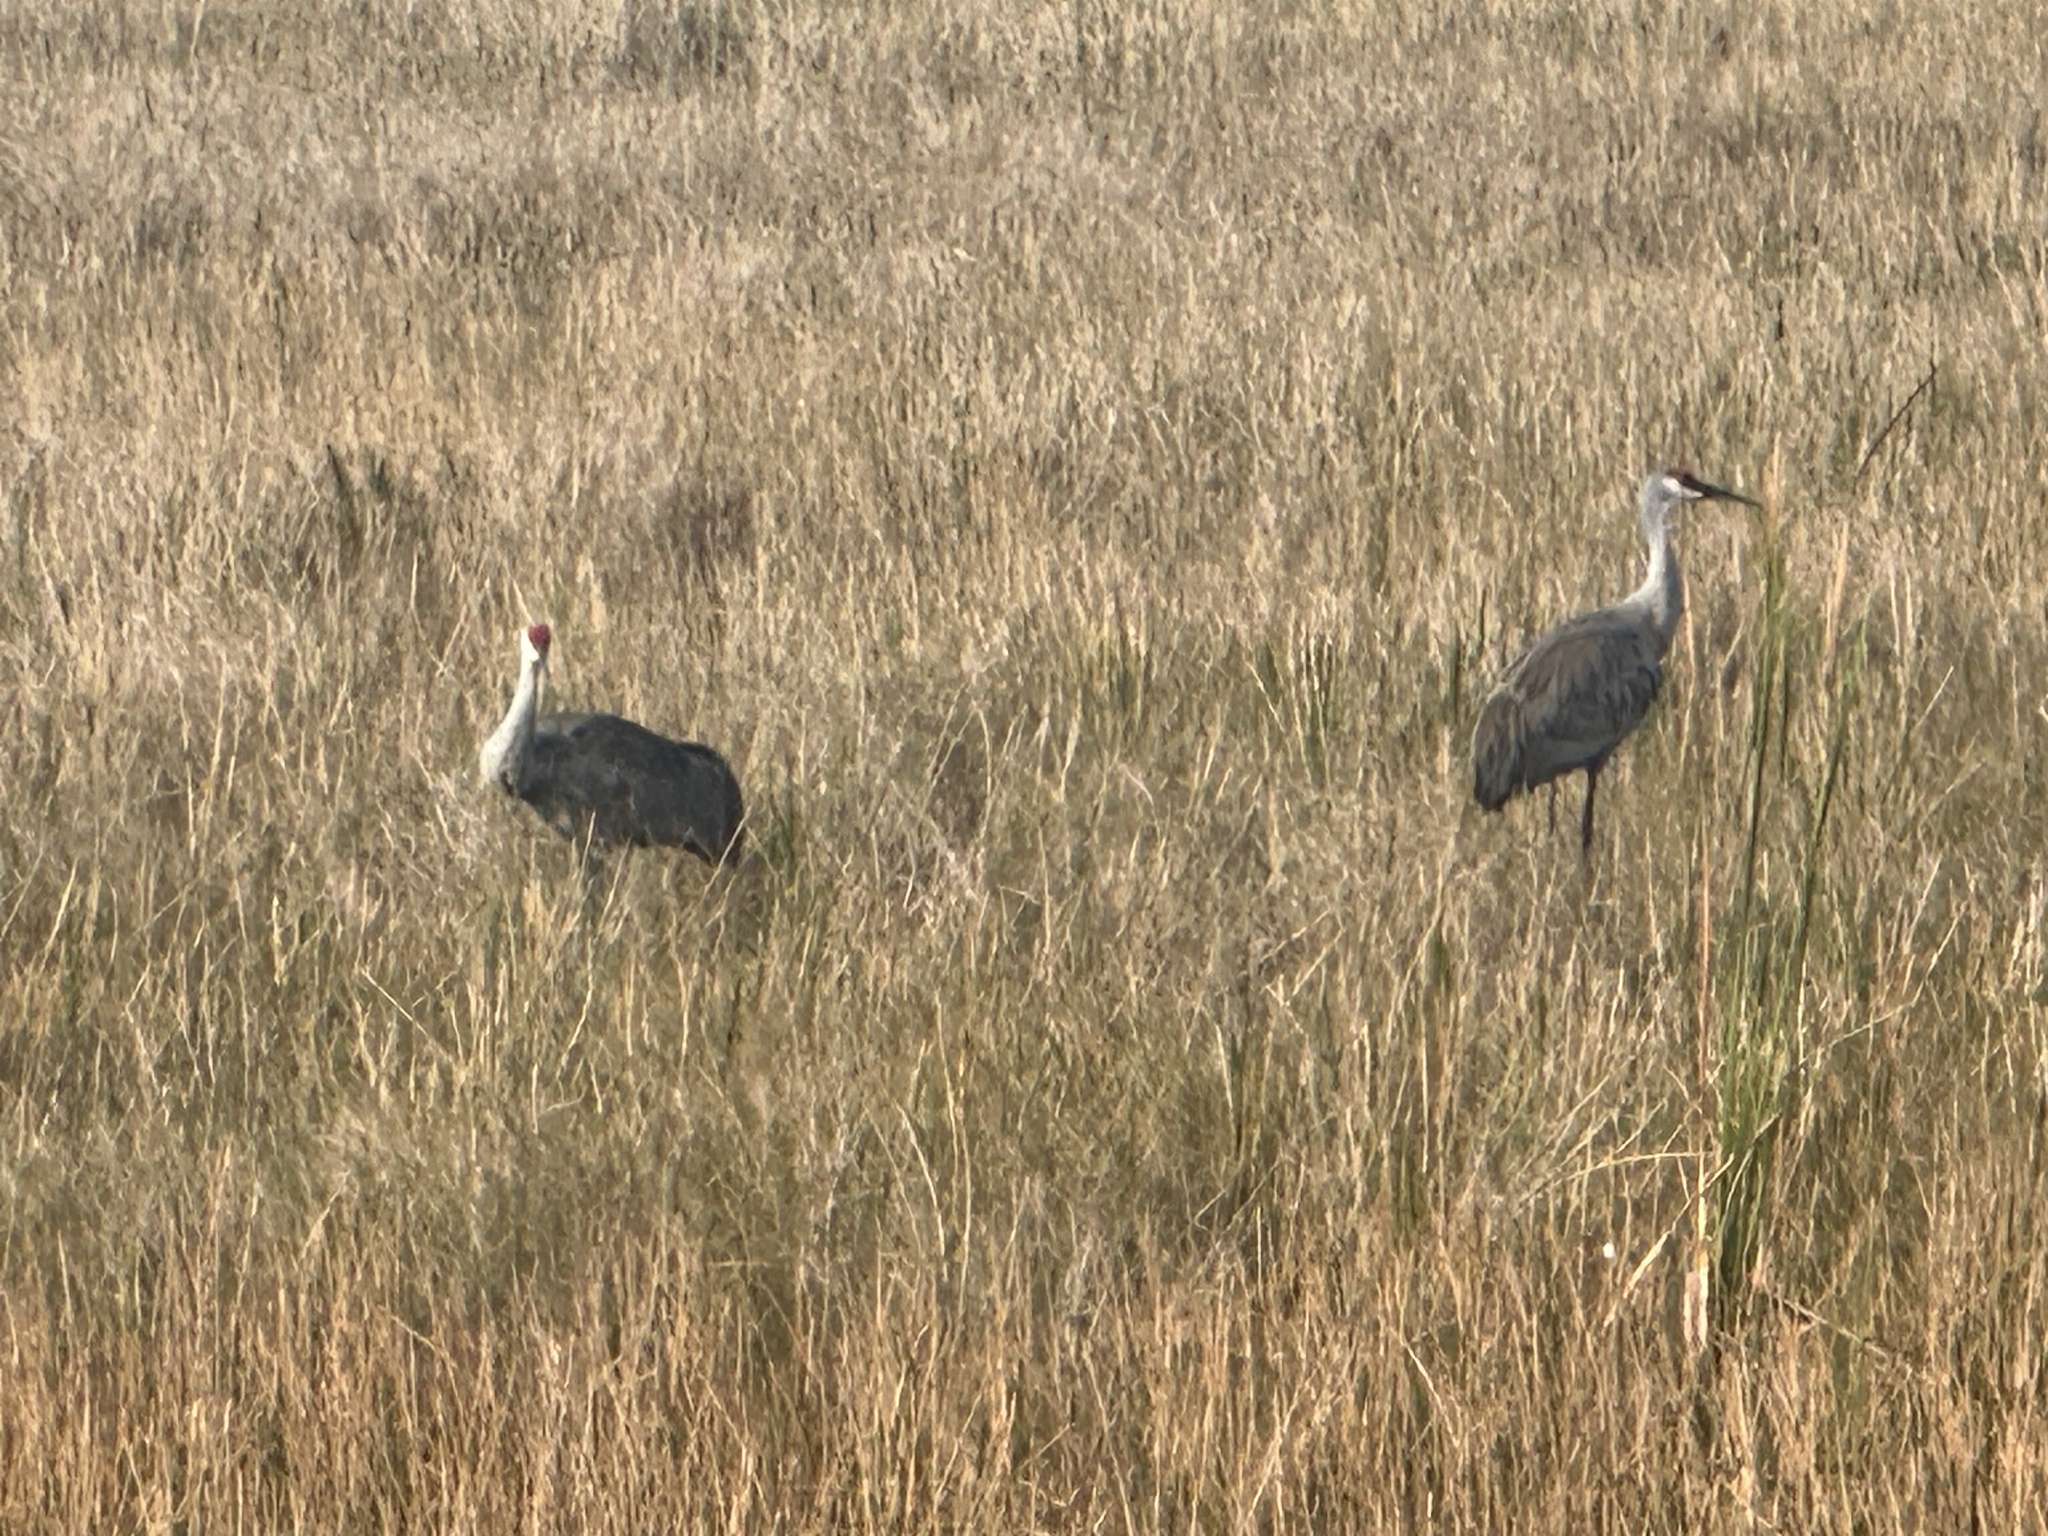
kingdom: Animalia
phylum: Chordata
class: Aves
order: Gruiformes
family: Gruidae
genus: Grus
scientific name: Grus canadensis
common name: Sandhill crane
